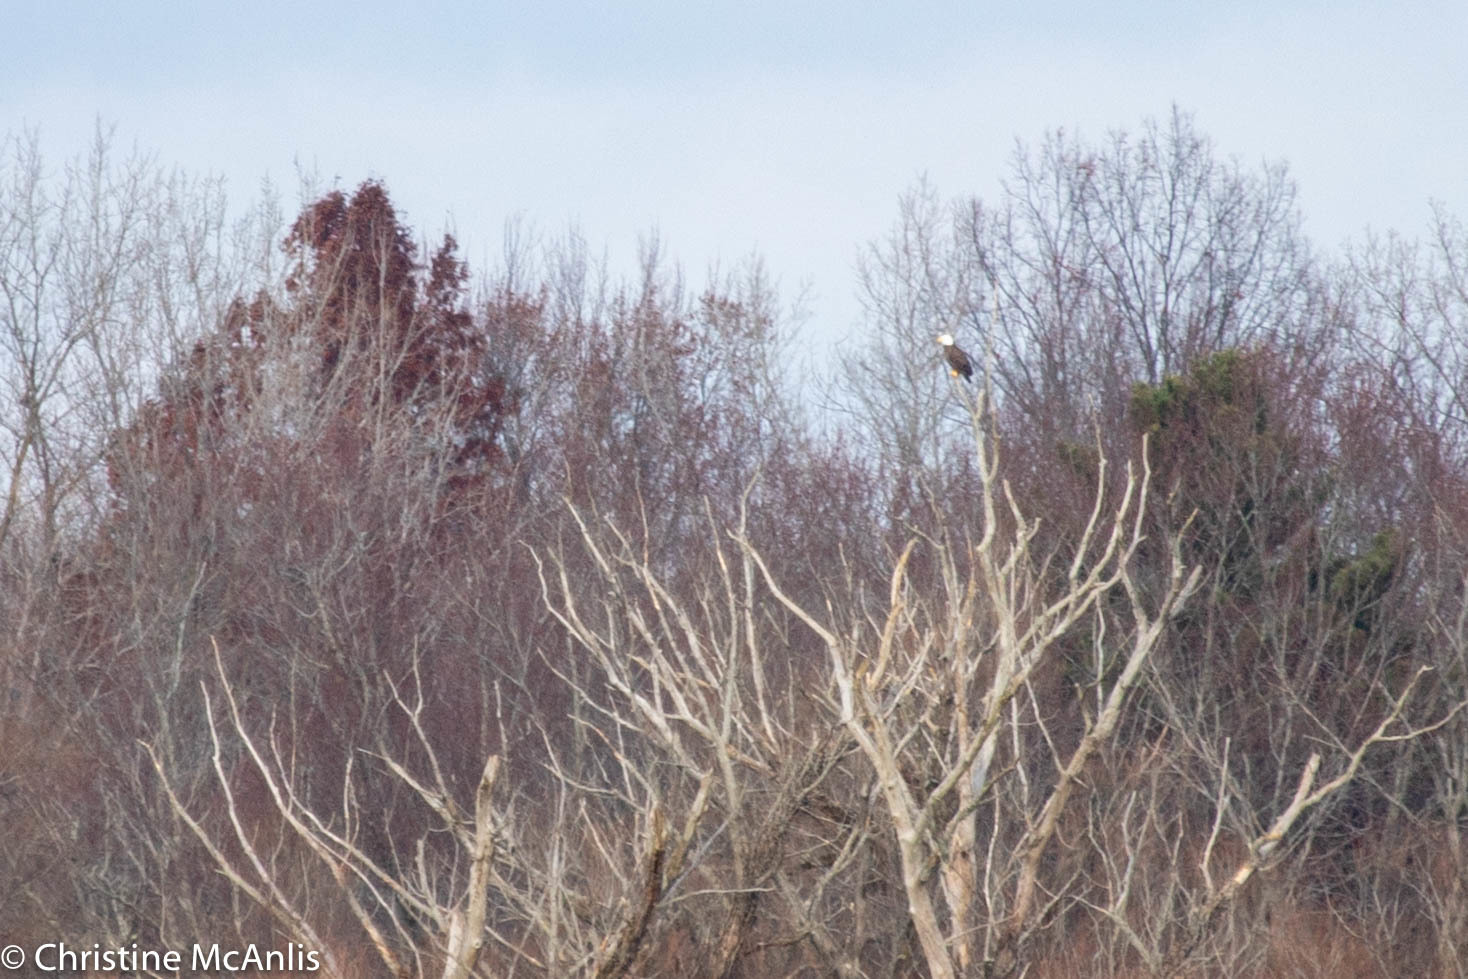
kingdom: Animalia
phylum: Chordata
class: Aves
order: Accipitriformes
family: Accipitridae
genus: Haliaeetus
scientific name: Haliaeetus leucocephalus
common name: Bald eagle
